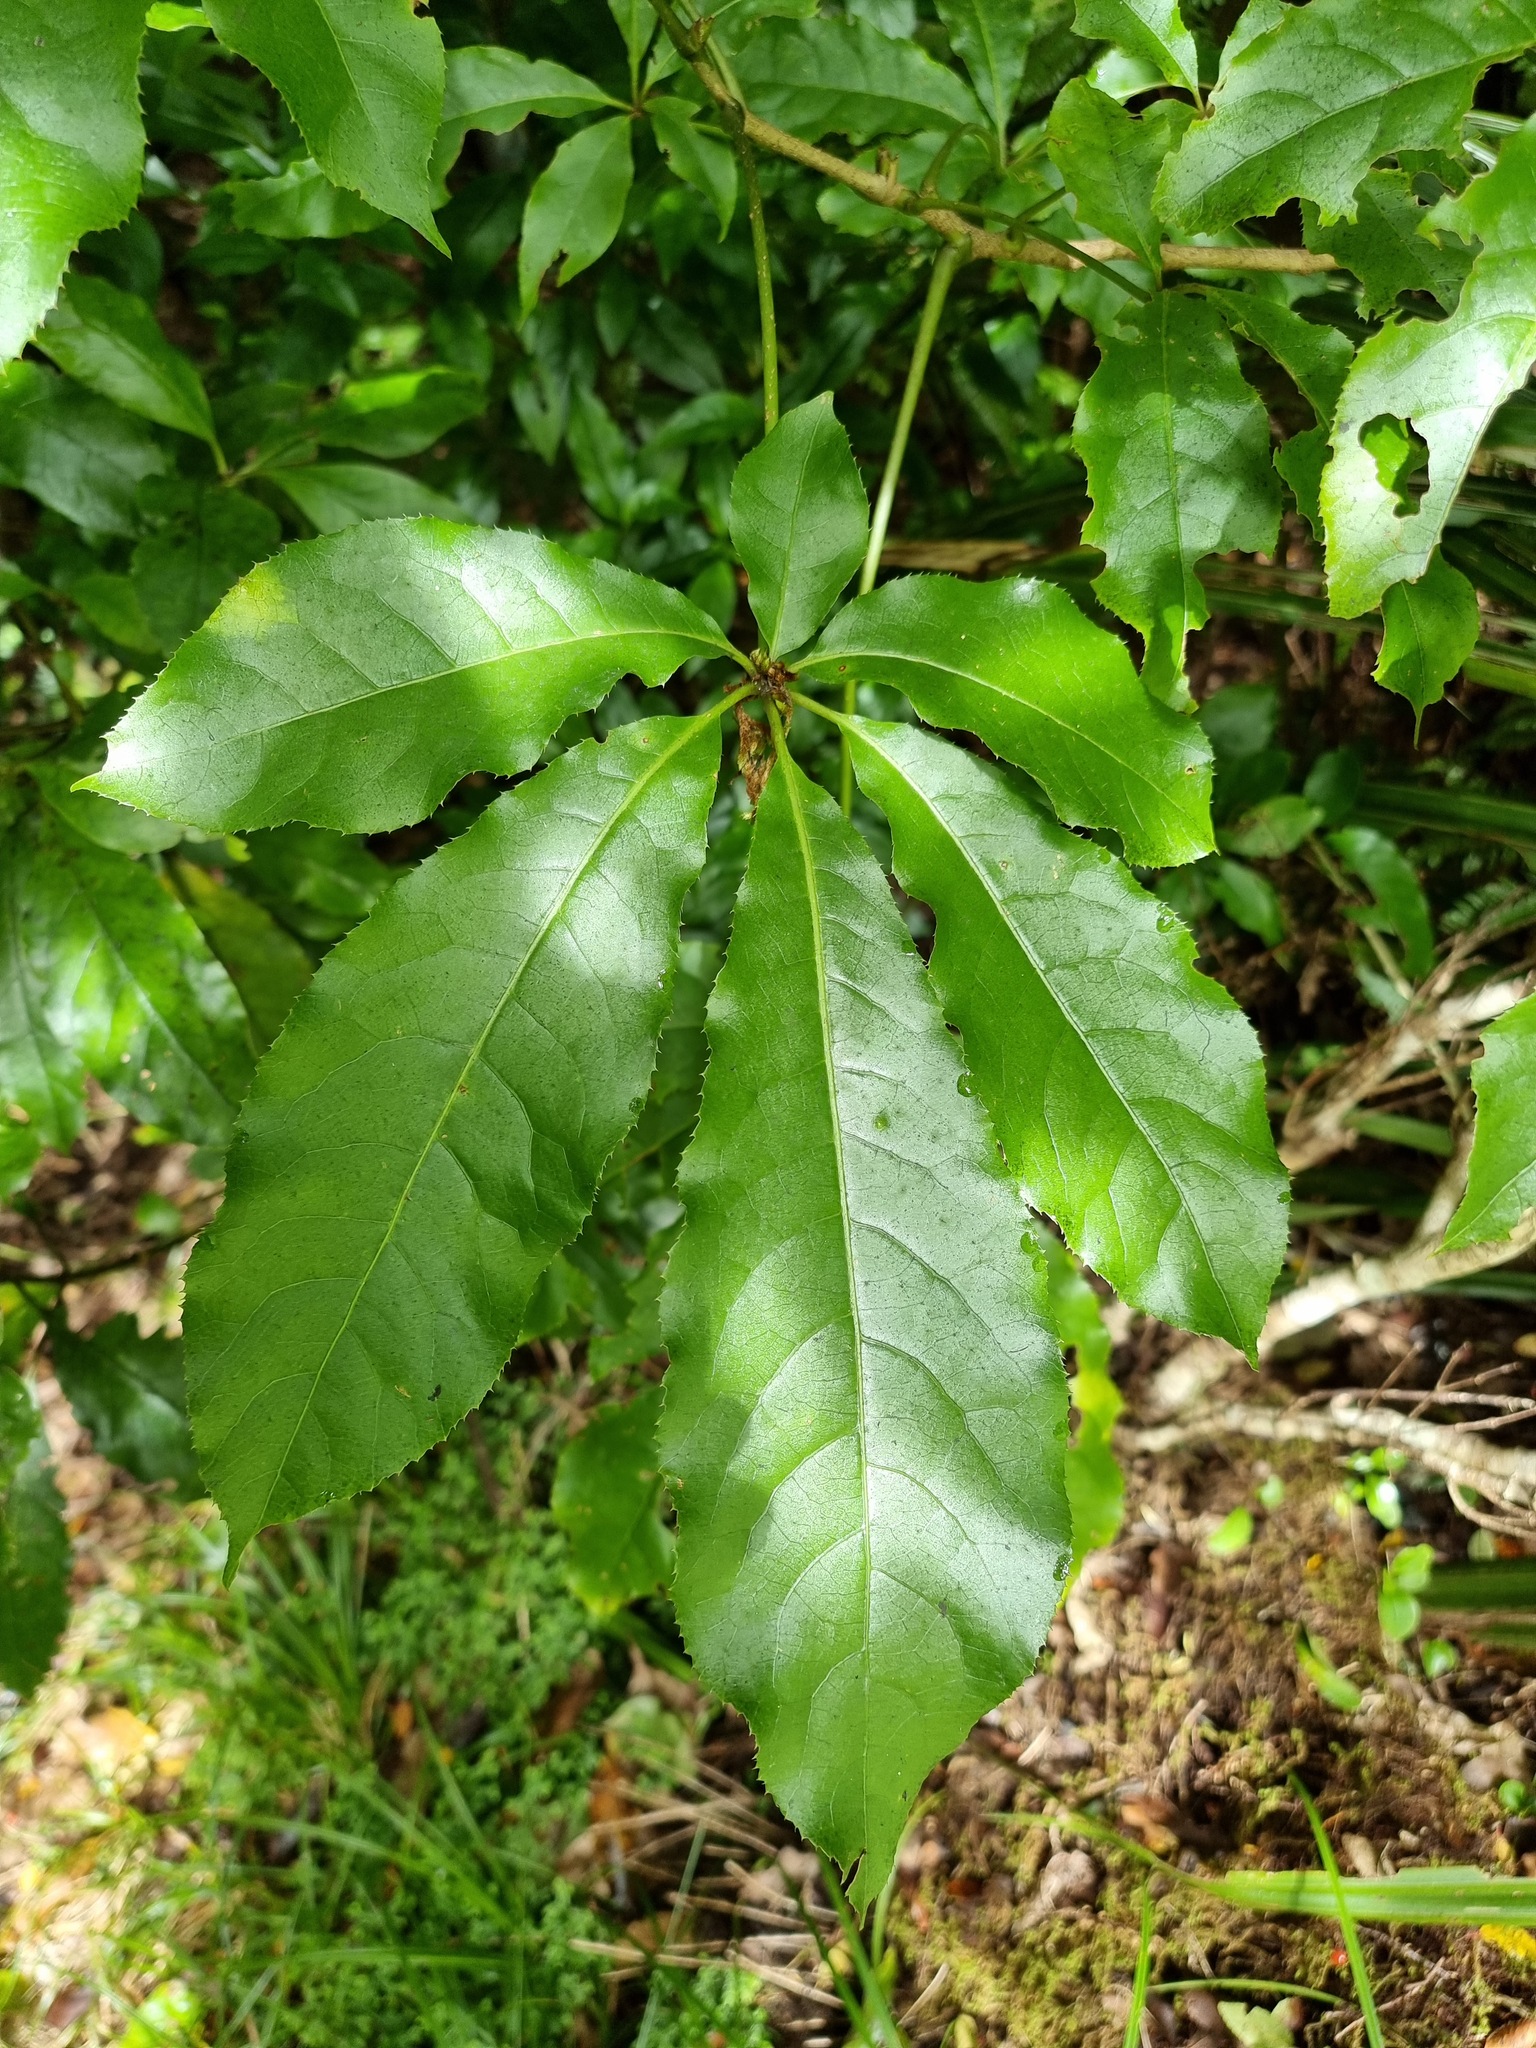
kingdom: Plantae
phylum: Tracheophyta
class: Magnoliopsida
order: Apiales
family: Araliaceae
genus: Schefflera
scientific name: Schefflera digitata
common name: Pate
